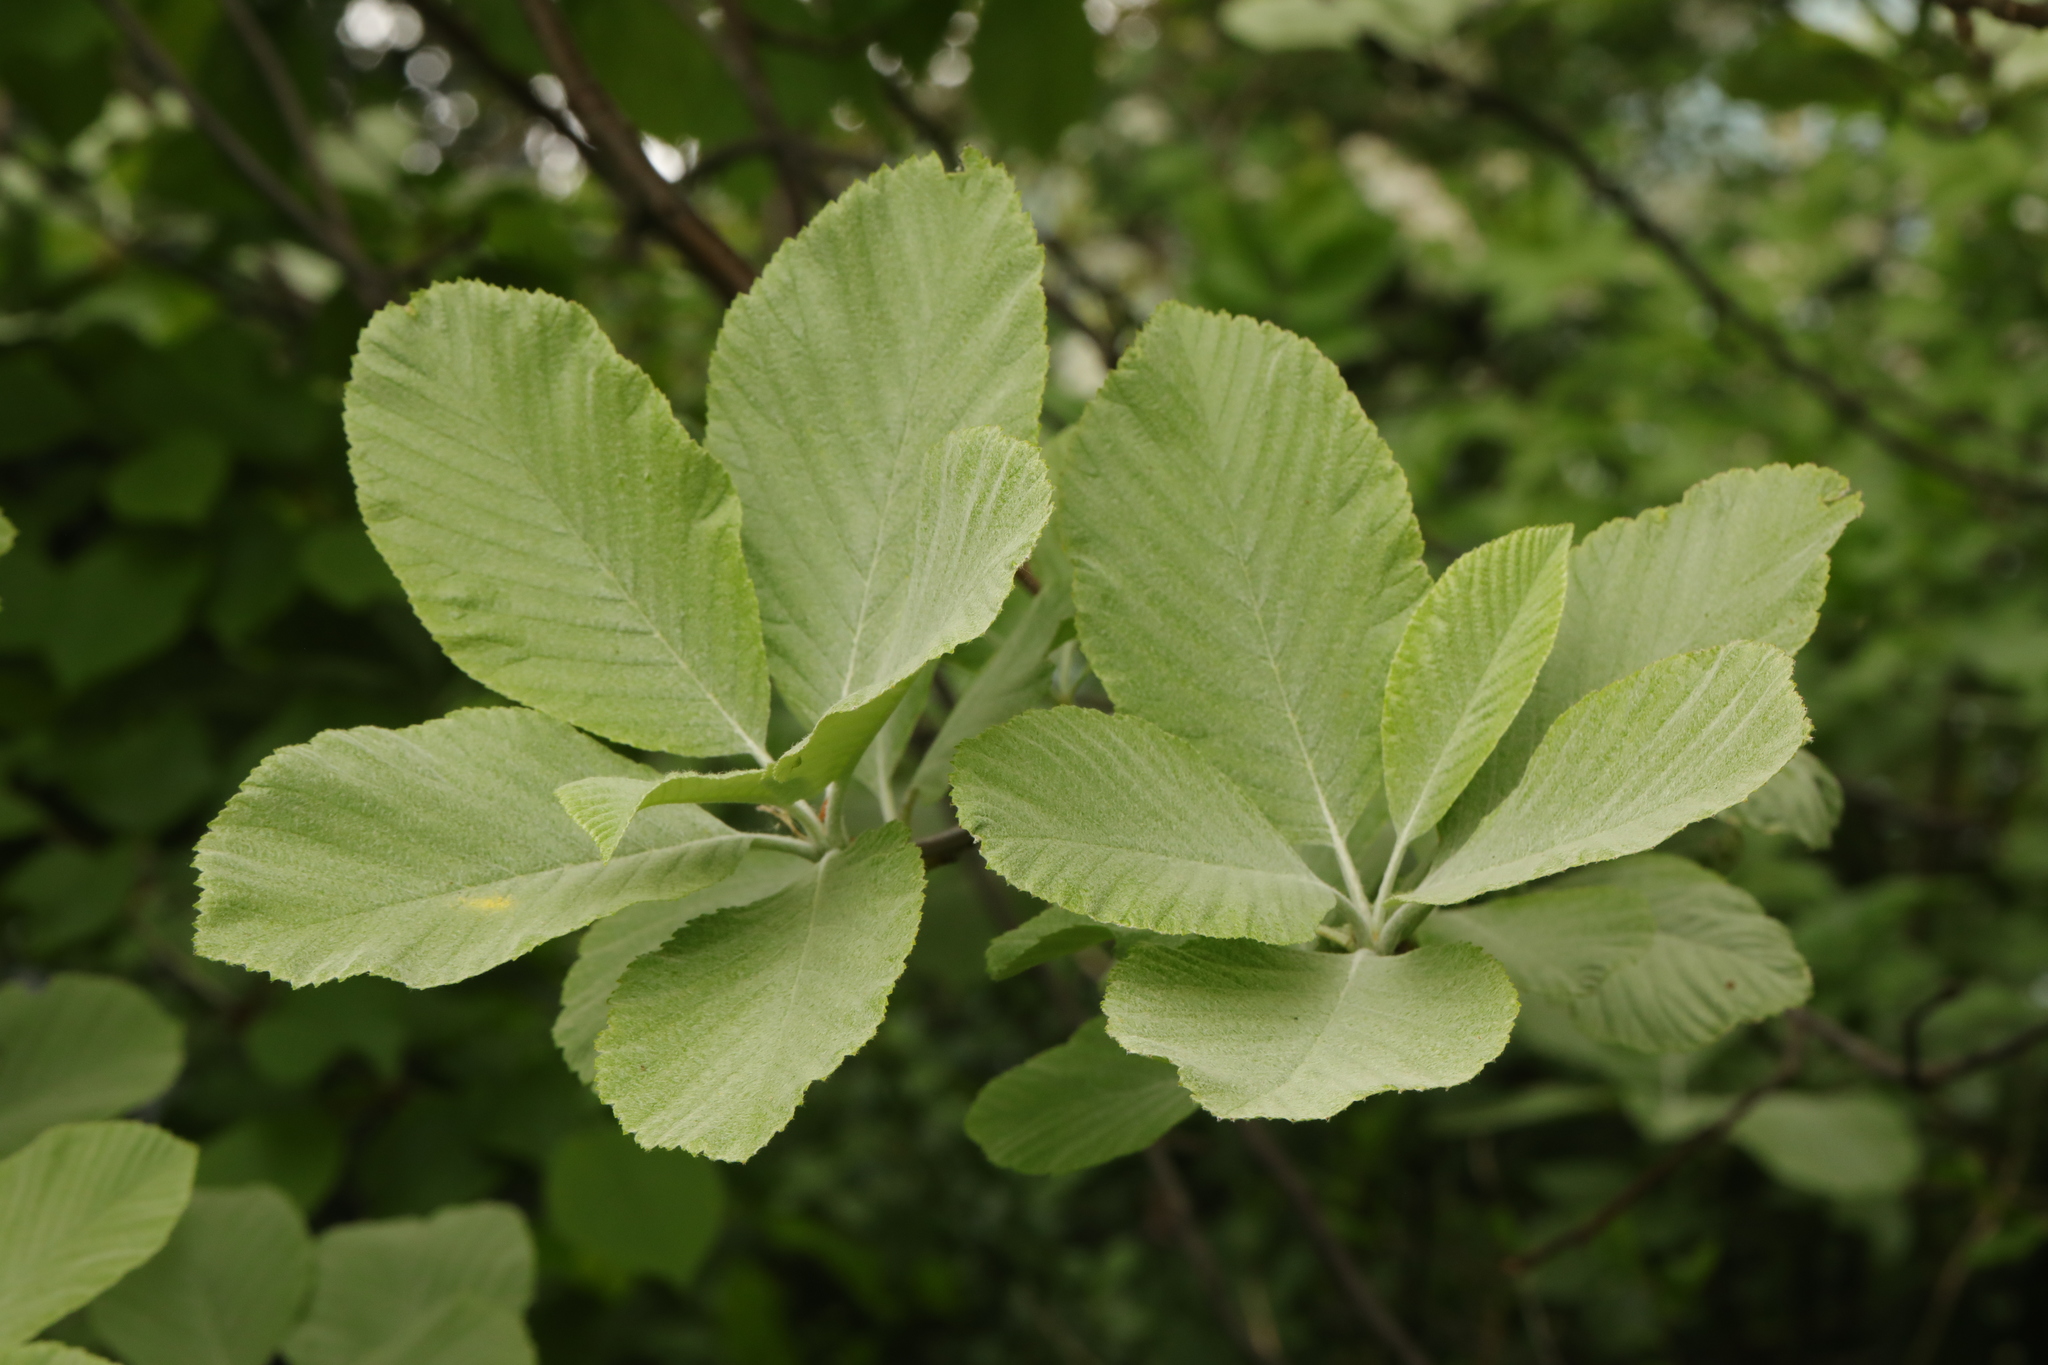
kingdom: Plantae
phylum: Tracheophyta
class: Magnoliopsida
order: Rosales
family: Rosaceae
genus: Aria
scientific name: Aria edulis
